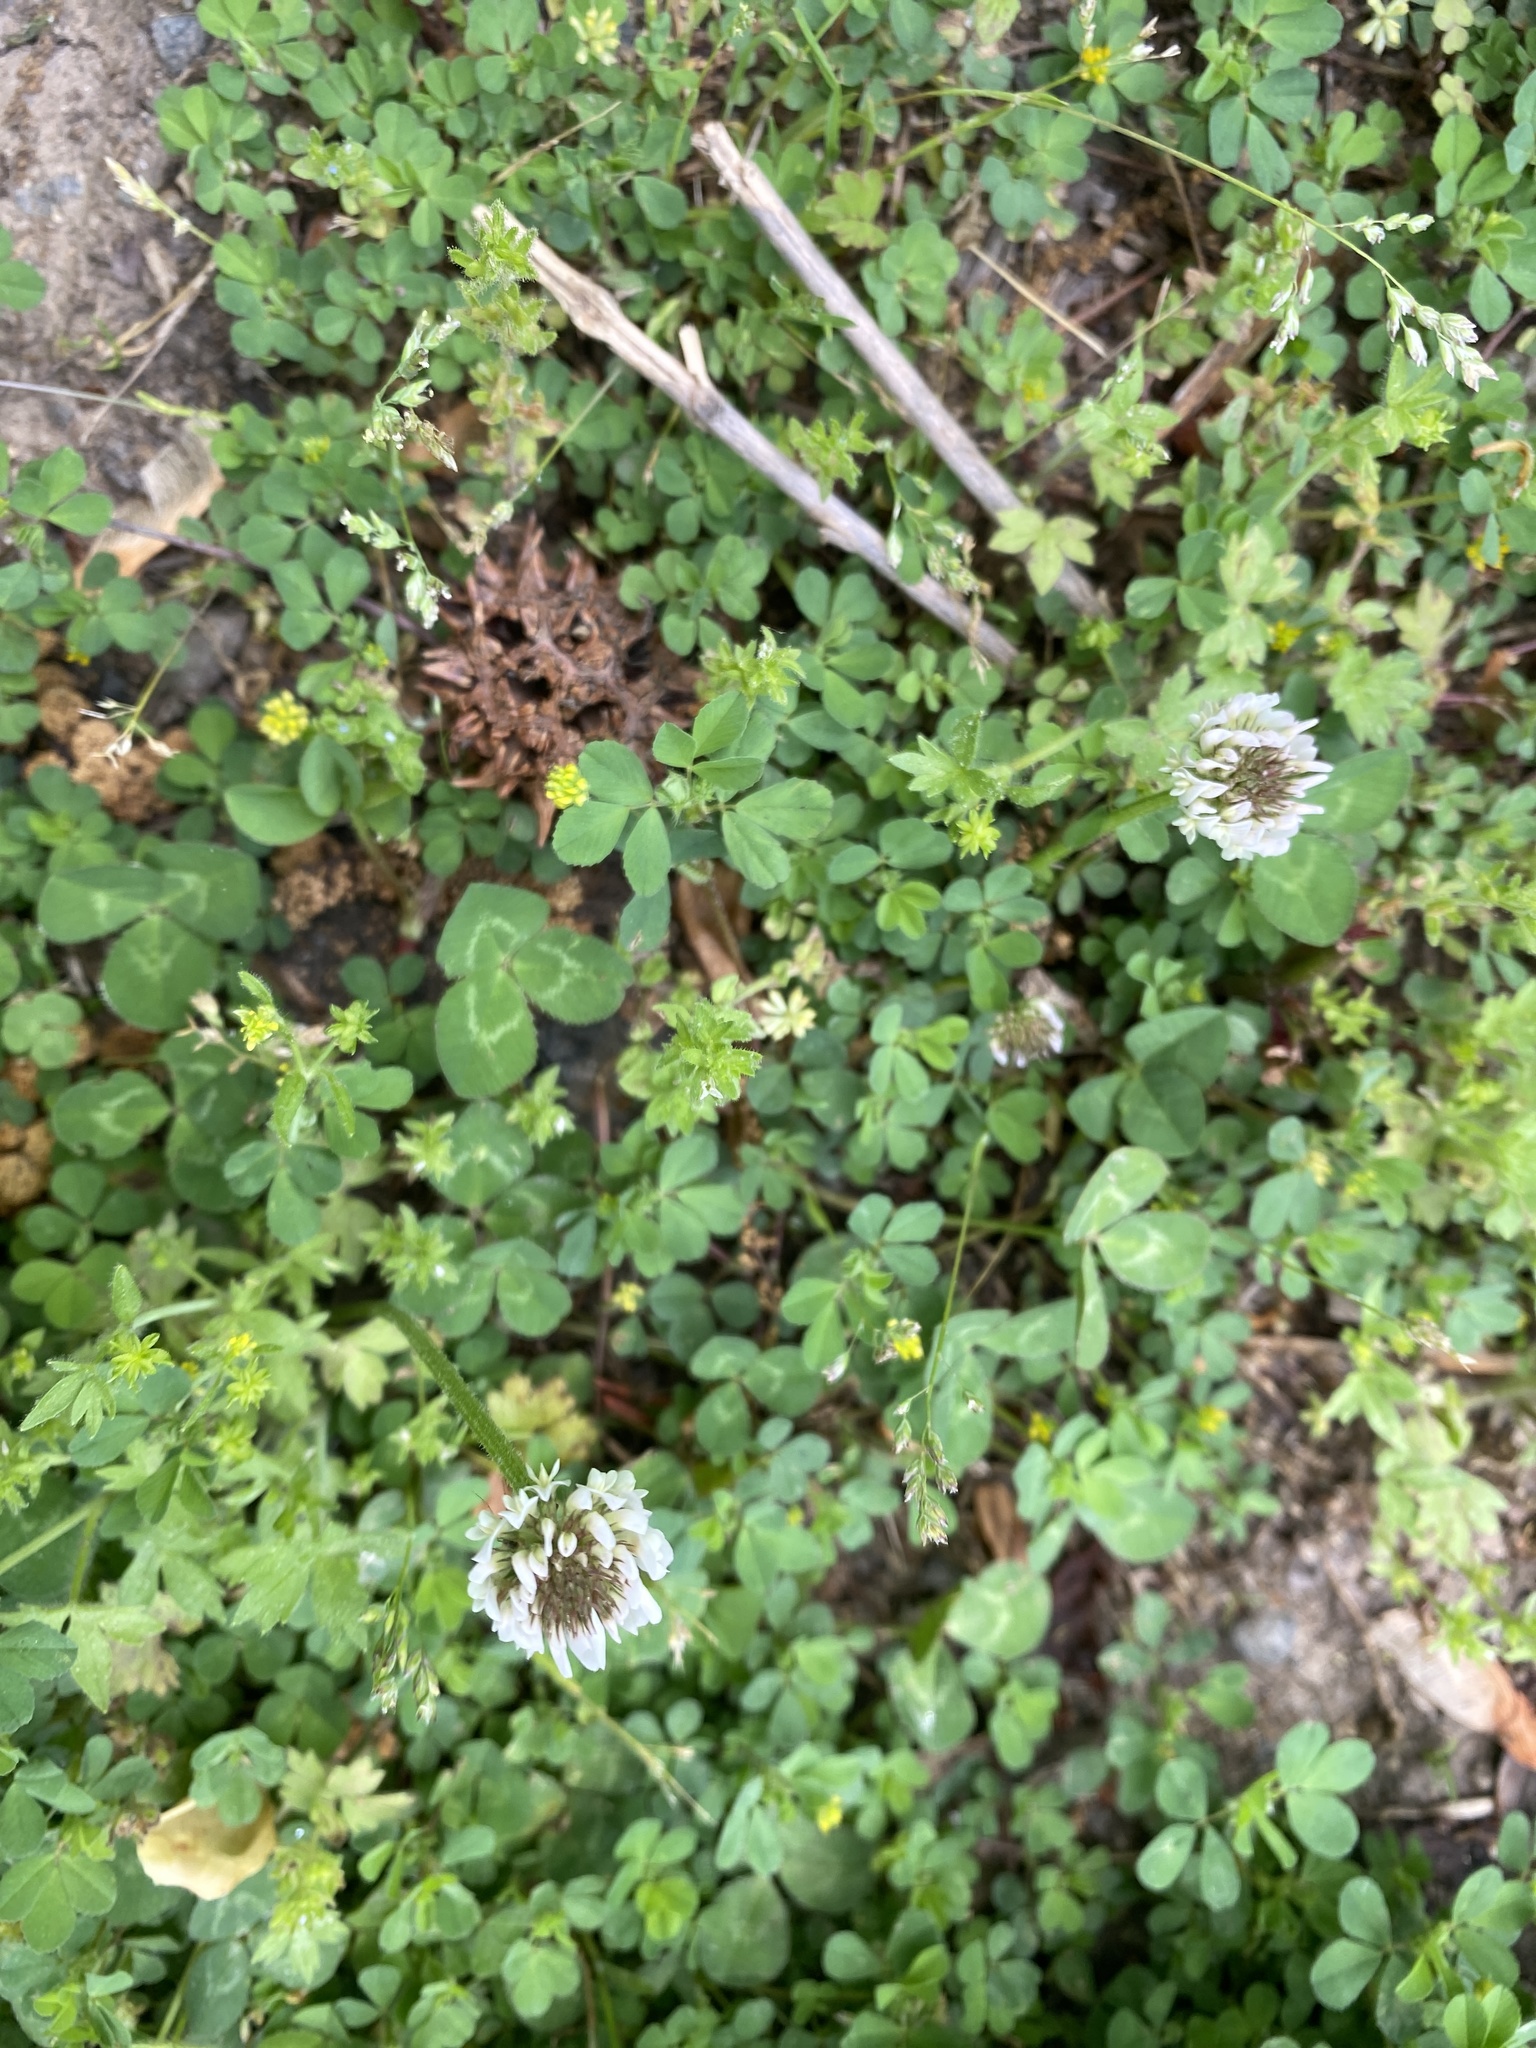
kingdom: Plantae
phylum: Tracheophyta
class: Magnoliopsida
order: Fabales
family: Fabaceae
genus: Trifolium
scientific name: Trifolium repens
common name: White clover
